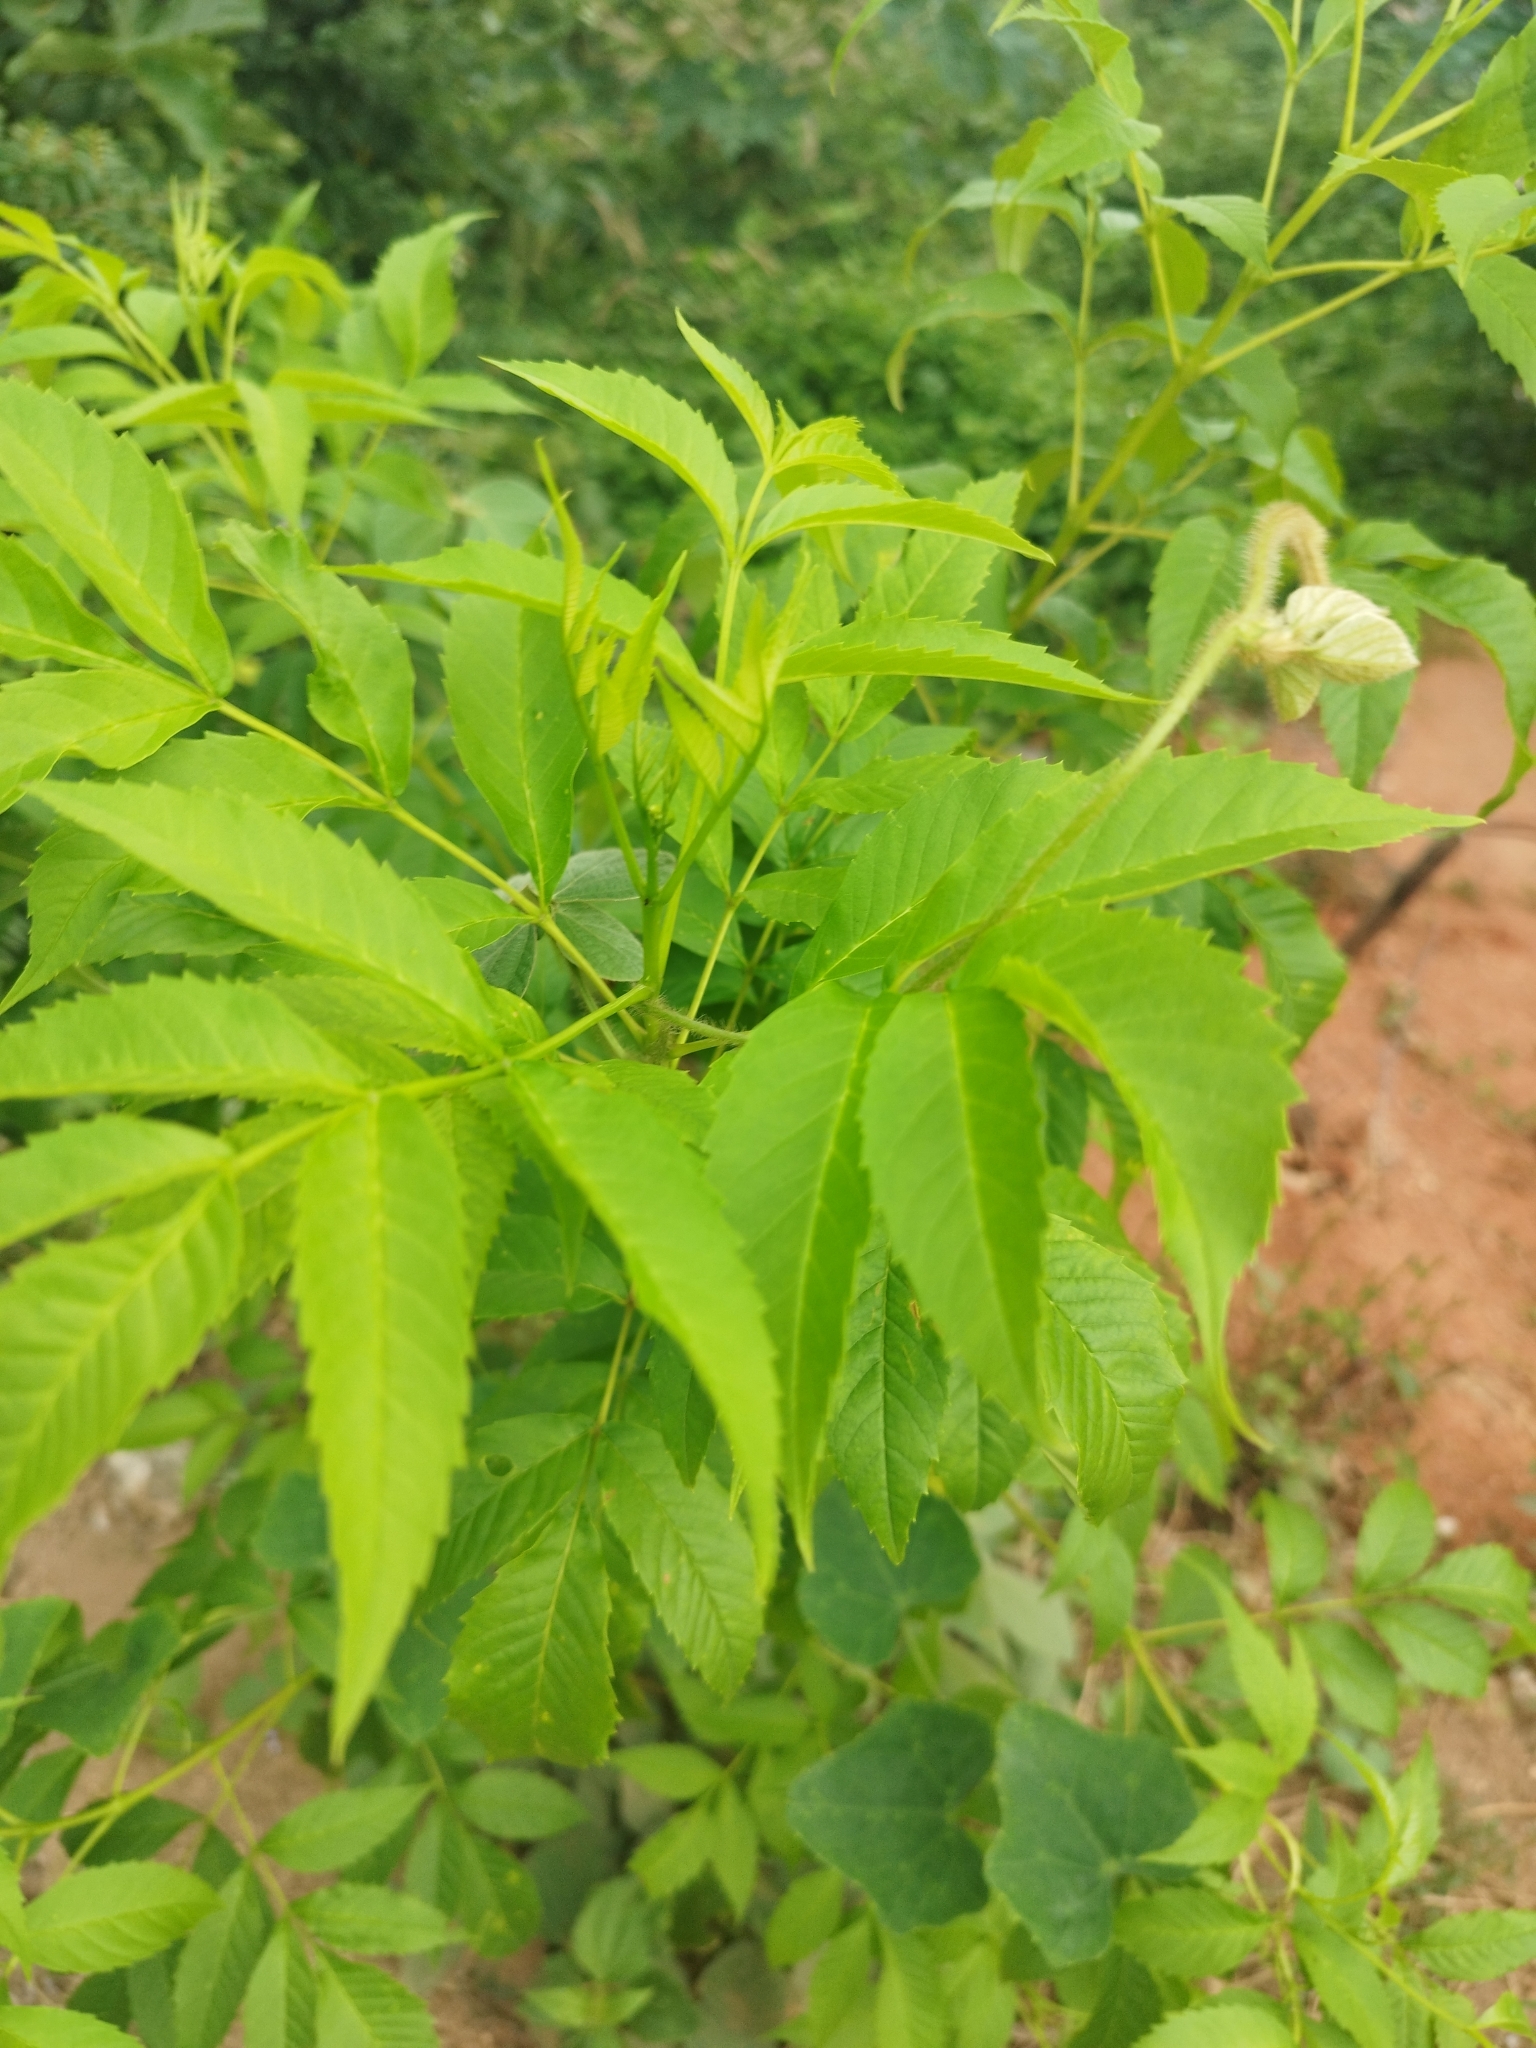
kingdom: Plantae
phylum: Tracheophyta
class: Magnoliopsida
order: Lamiales
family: Bignoniaceae
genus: Tecoma
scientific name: Tecoma stans
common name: Yellow trumpetbush
